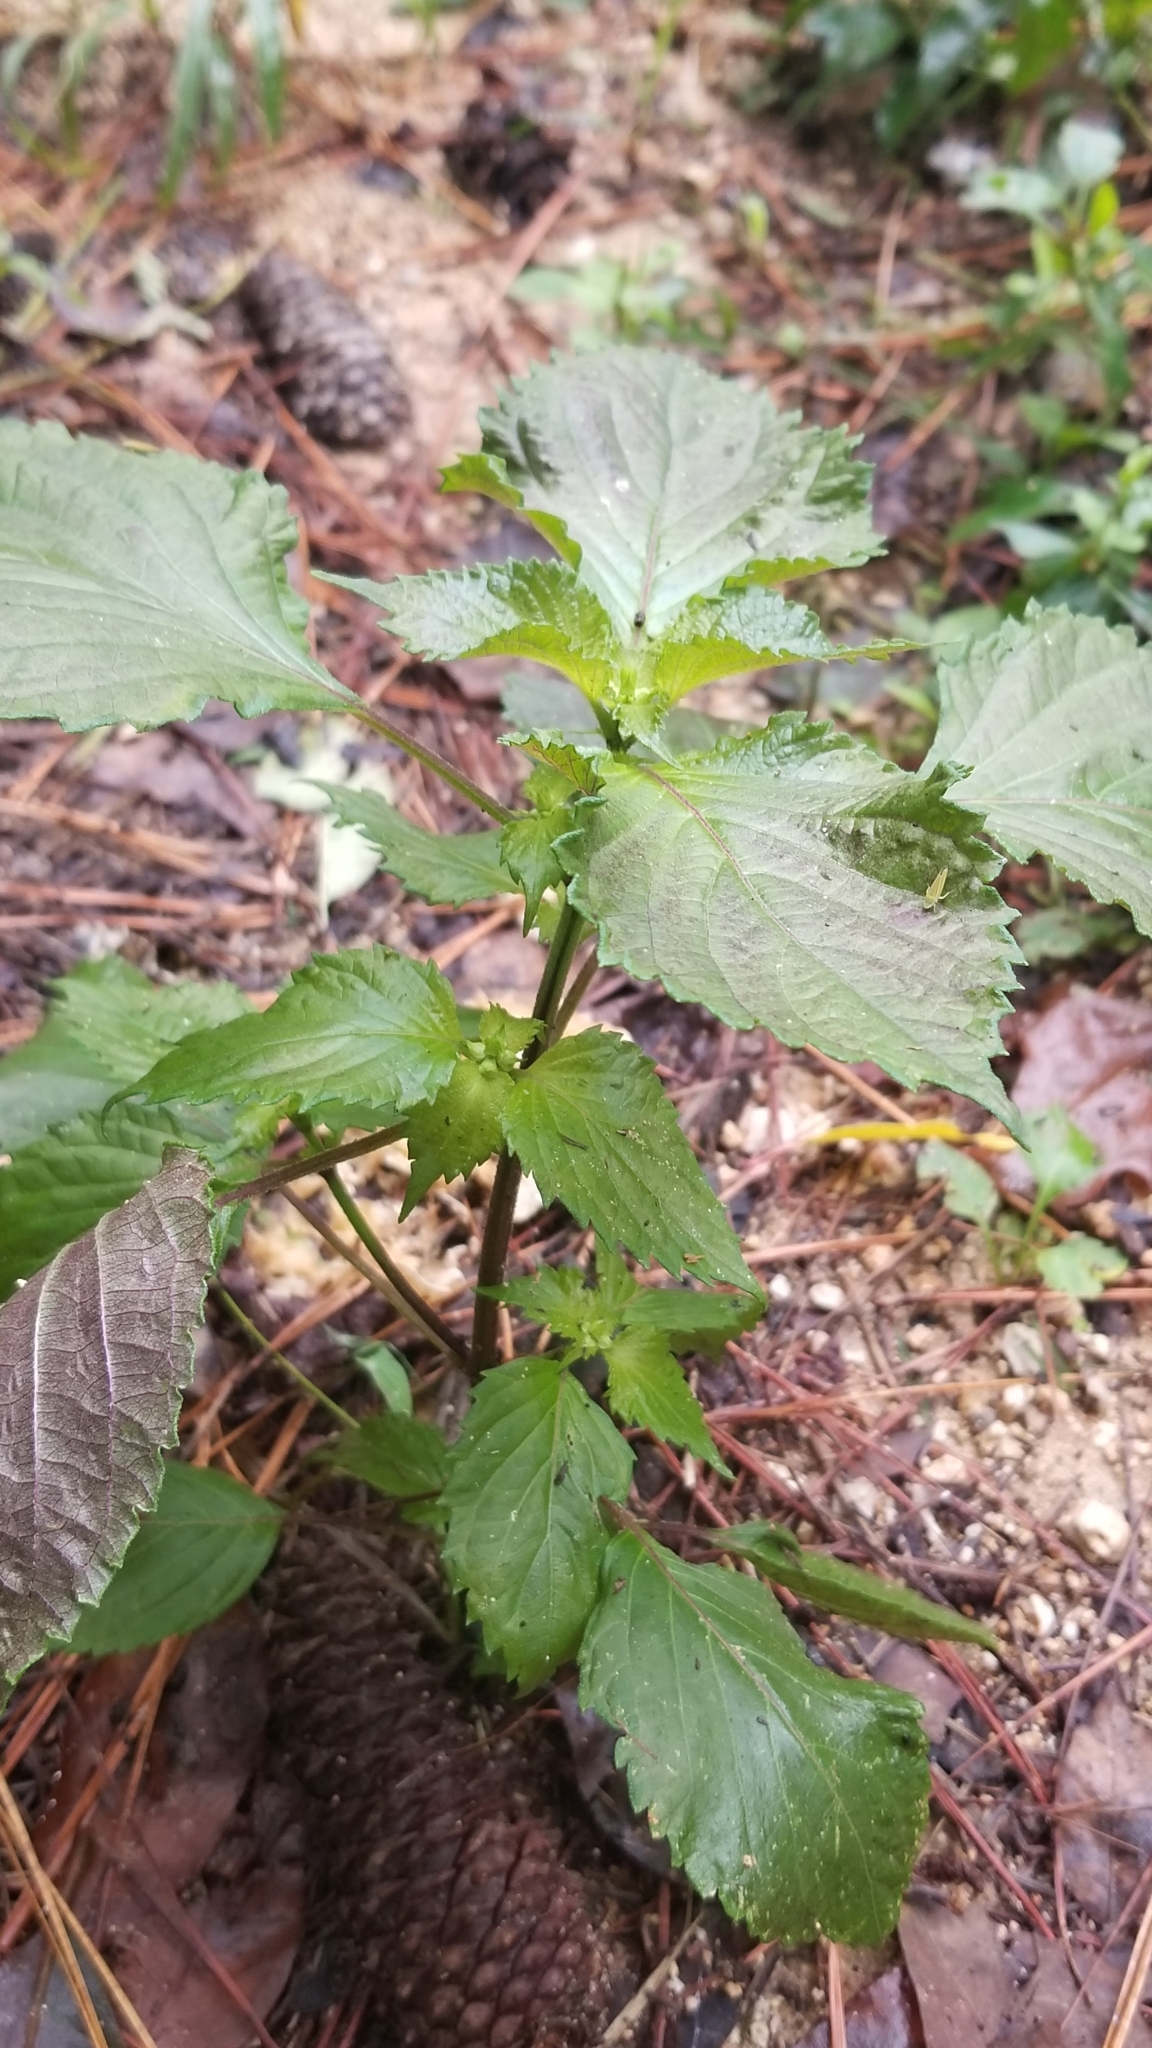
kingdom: Plantae
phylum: Tracheophyta
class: Magnoliopsida
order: Lamiales
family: Lamiaceae
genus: Perilla
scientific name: Perilla frutescens
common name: Perilla
